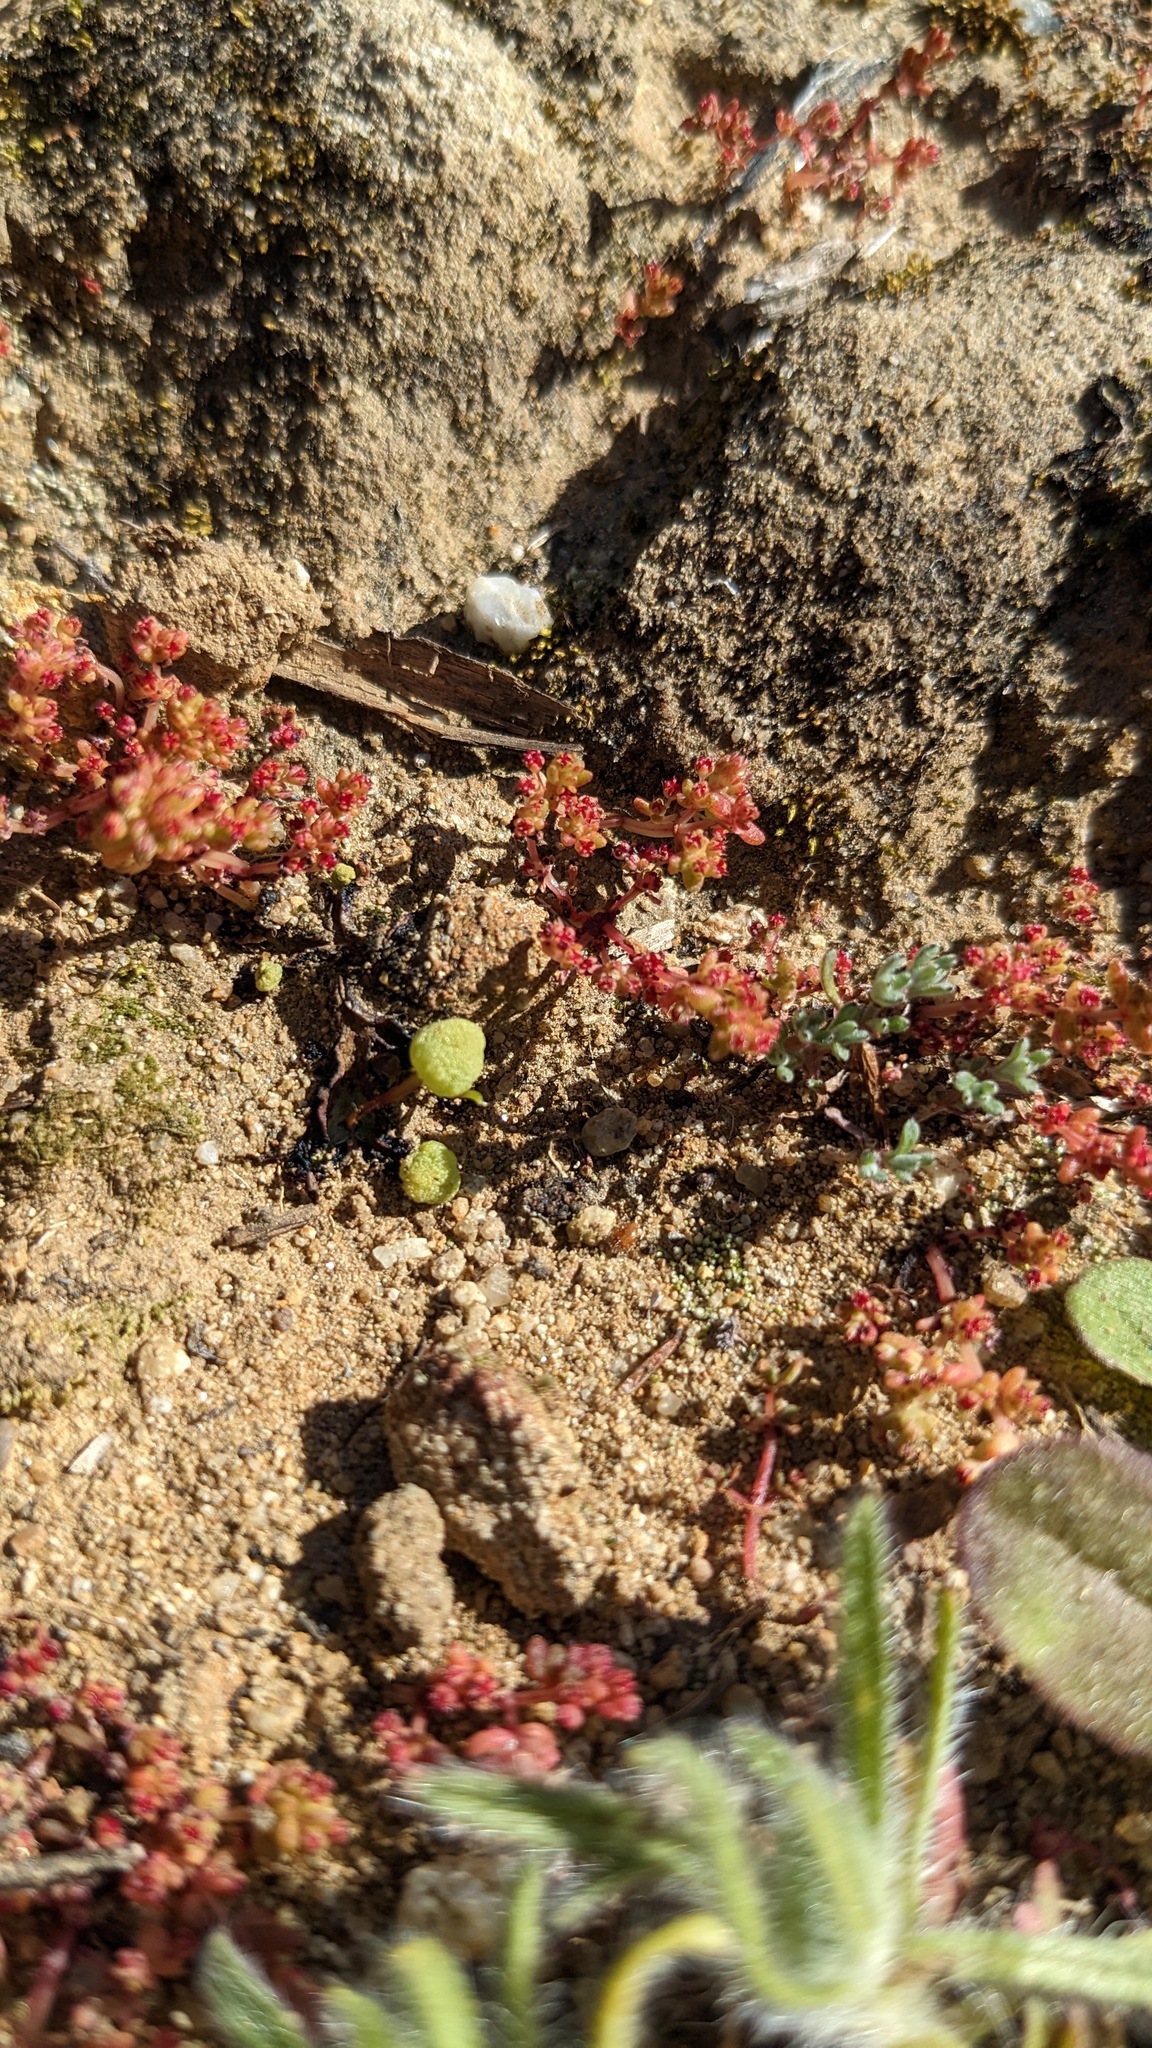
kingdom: Plantae
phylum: Tracheophyta
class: Magnoliopsida
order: Saxifragales
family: Crassulaceae
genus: Crassula
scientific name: Crassula connata
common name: Erect pygmyweed
